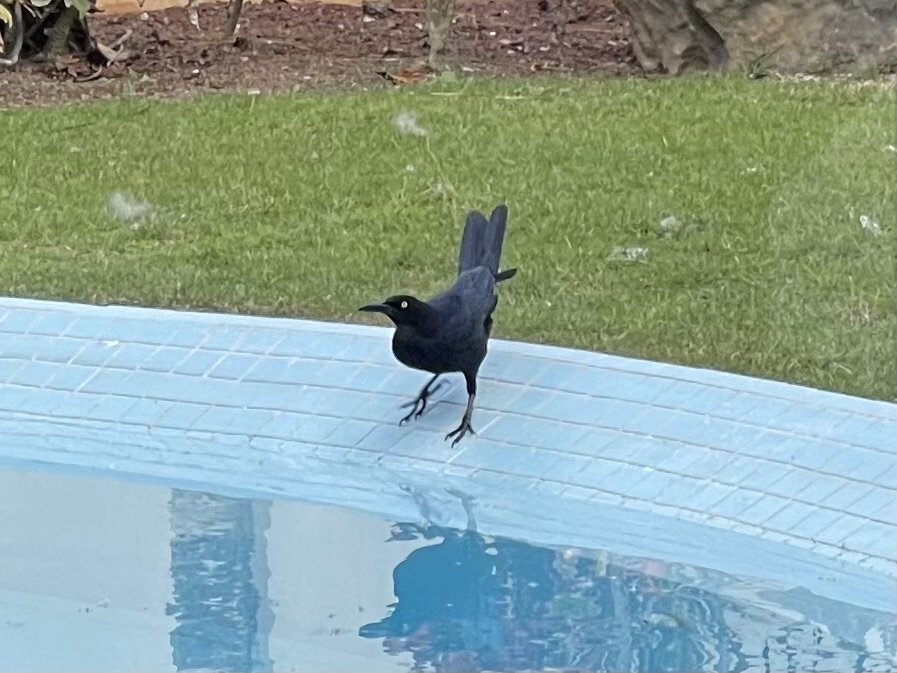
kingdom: Animalia
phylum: Chordata
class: Aves
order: Passeriformes
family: Icteridae
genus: Quiscalus
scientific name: Quiscalus mexicanus
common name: Great-tailed grackle
